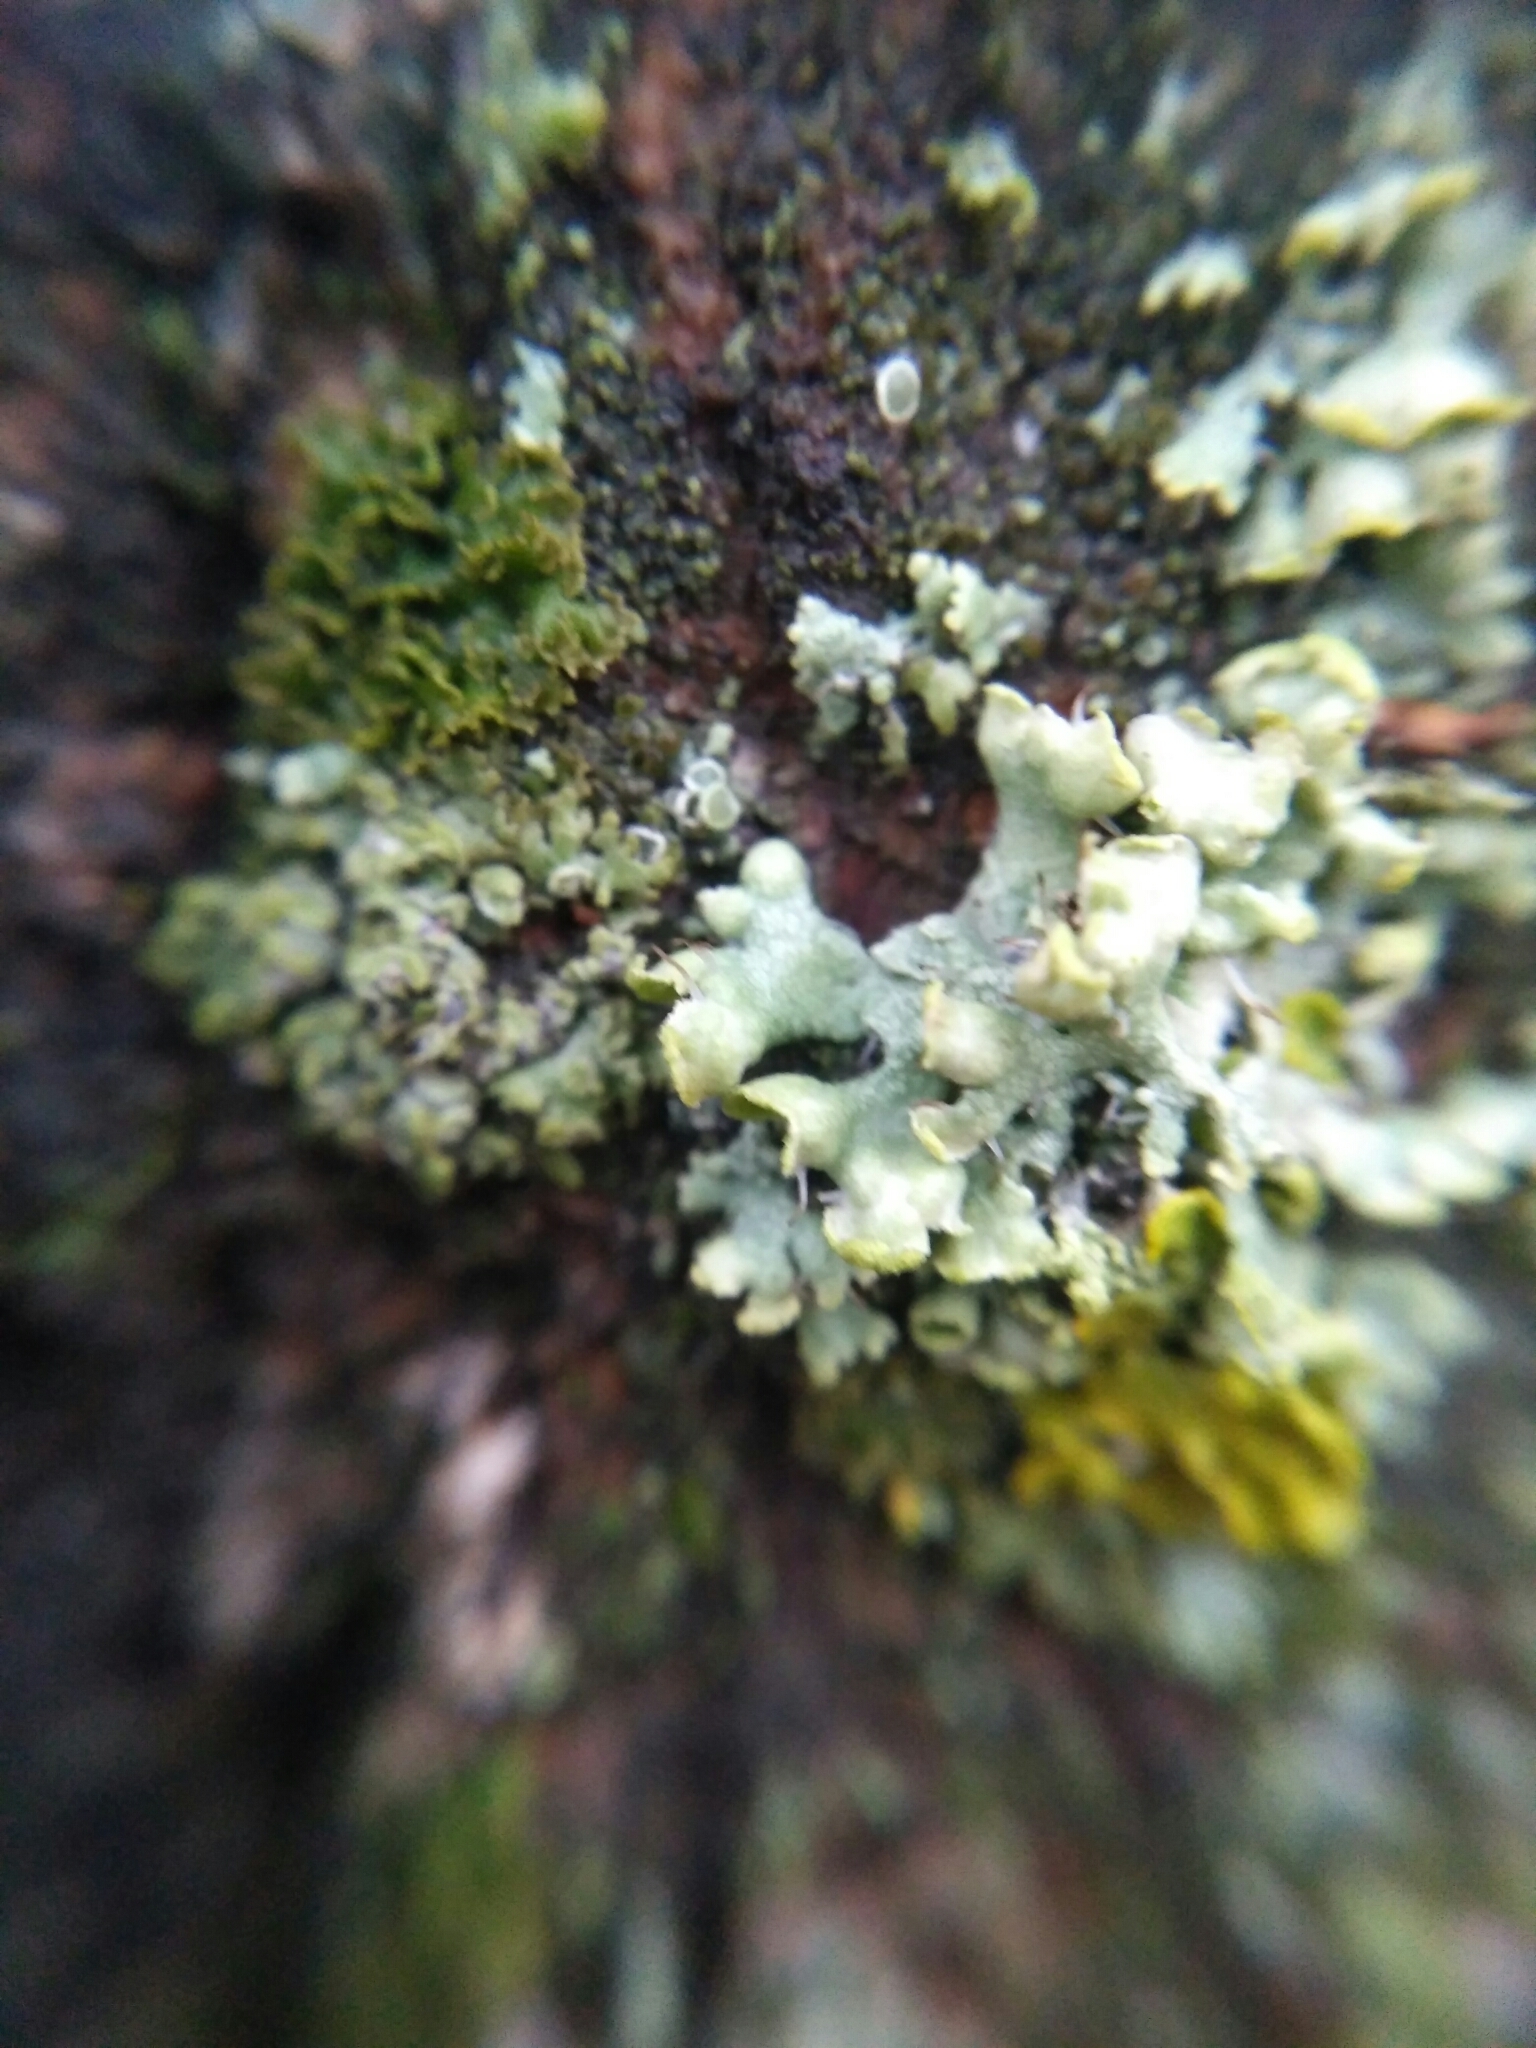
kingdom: Fungi
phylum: Ascomycota
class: Lecanoromycetes
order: Caliciales
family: Physciaceae
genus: Physcia
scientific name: Physcia adscendens
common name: Hooded rosette lichen
